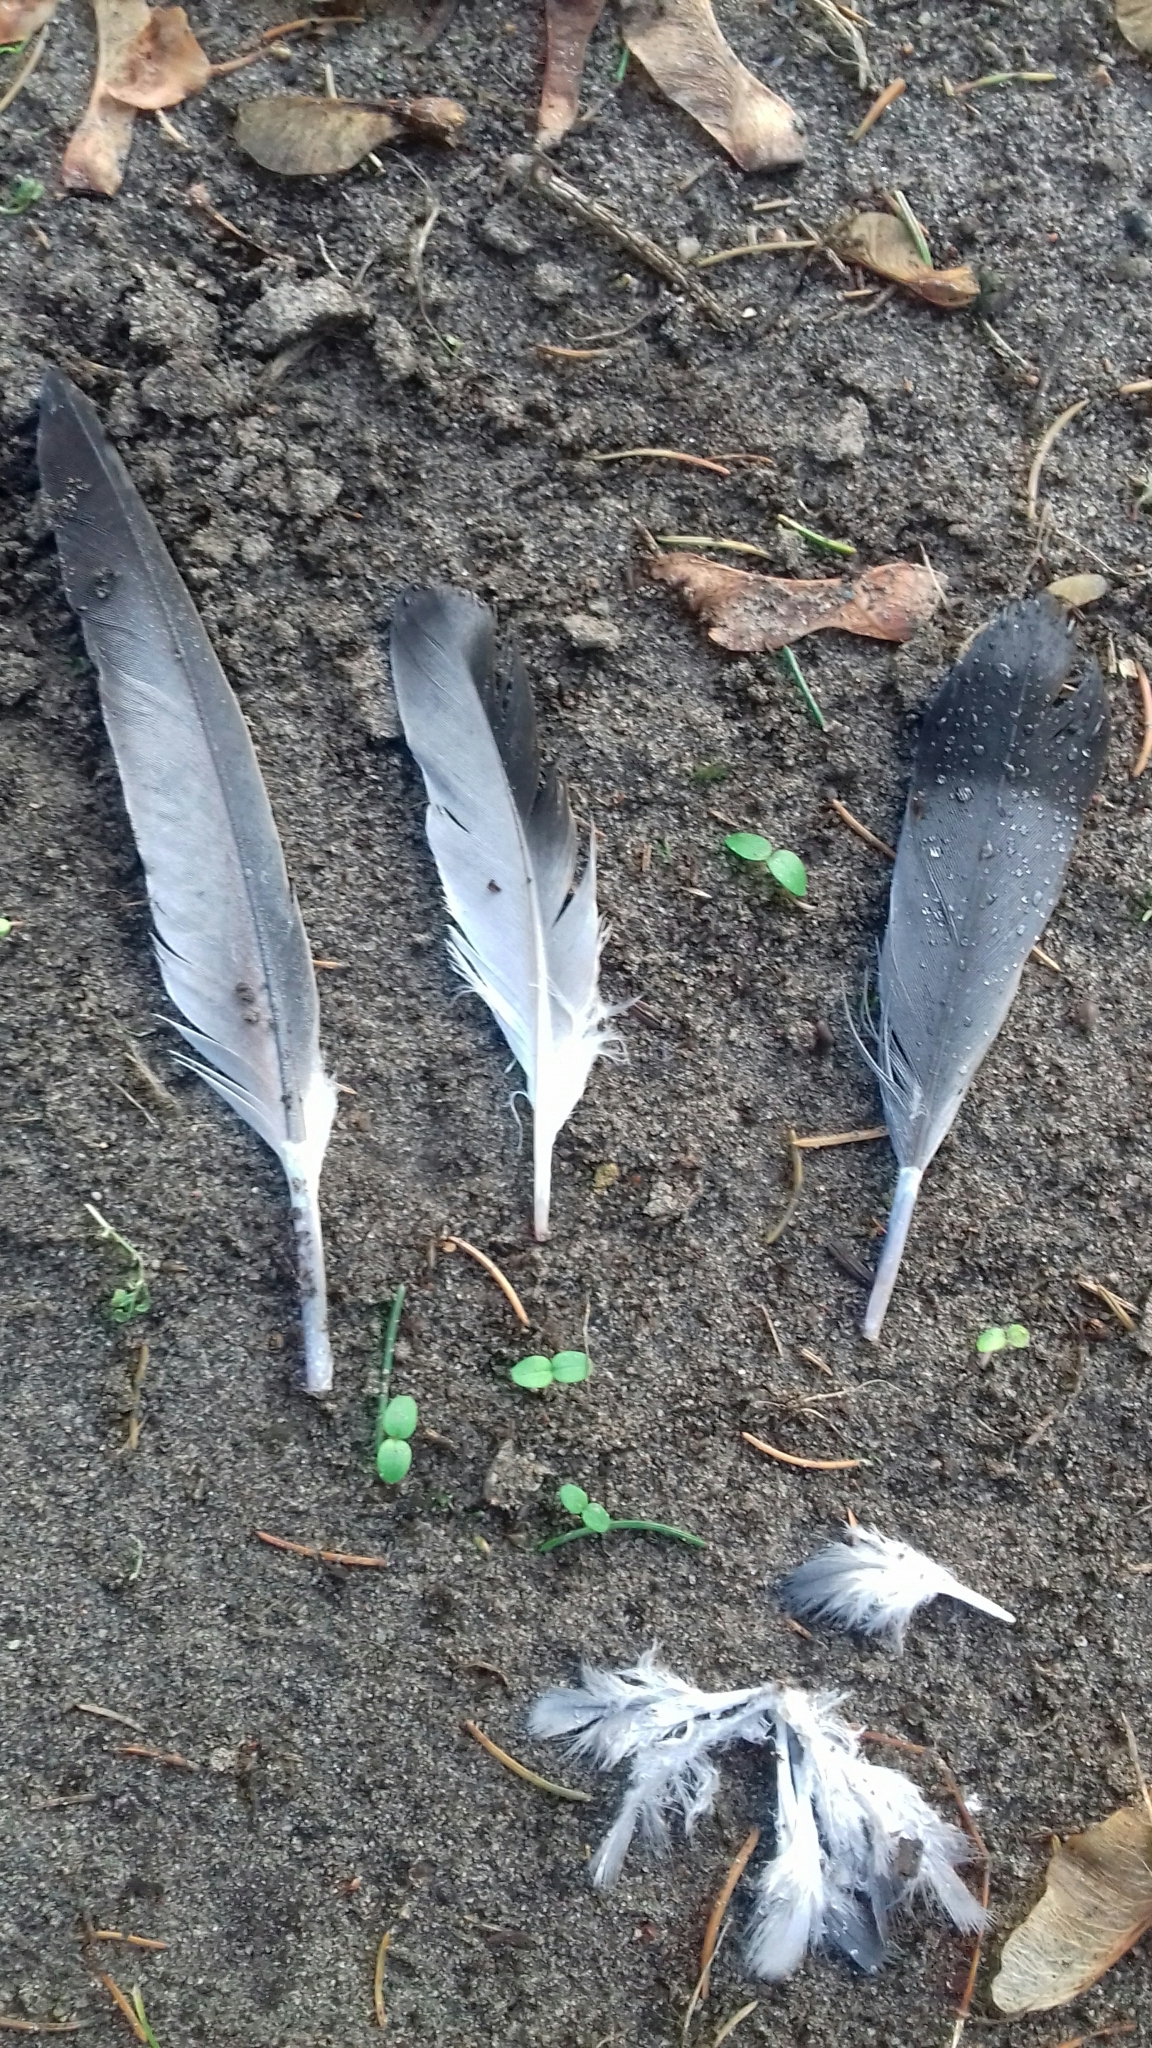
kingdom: Animalia
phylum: Chordata
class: Aves
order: Columbiformes
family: Columbidae
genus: Columba
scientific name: Columba livia
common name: Rock pigeon
